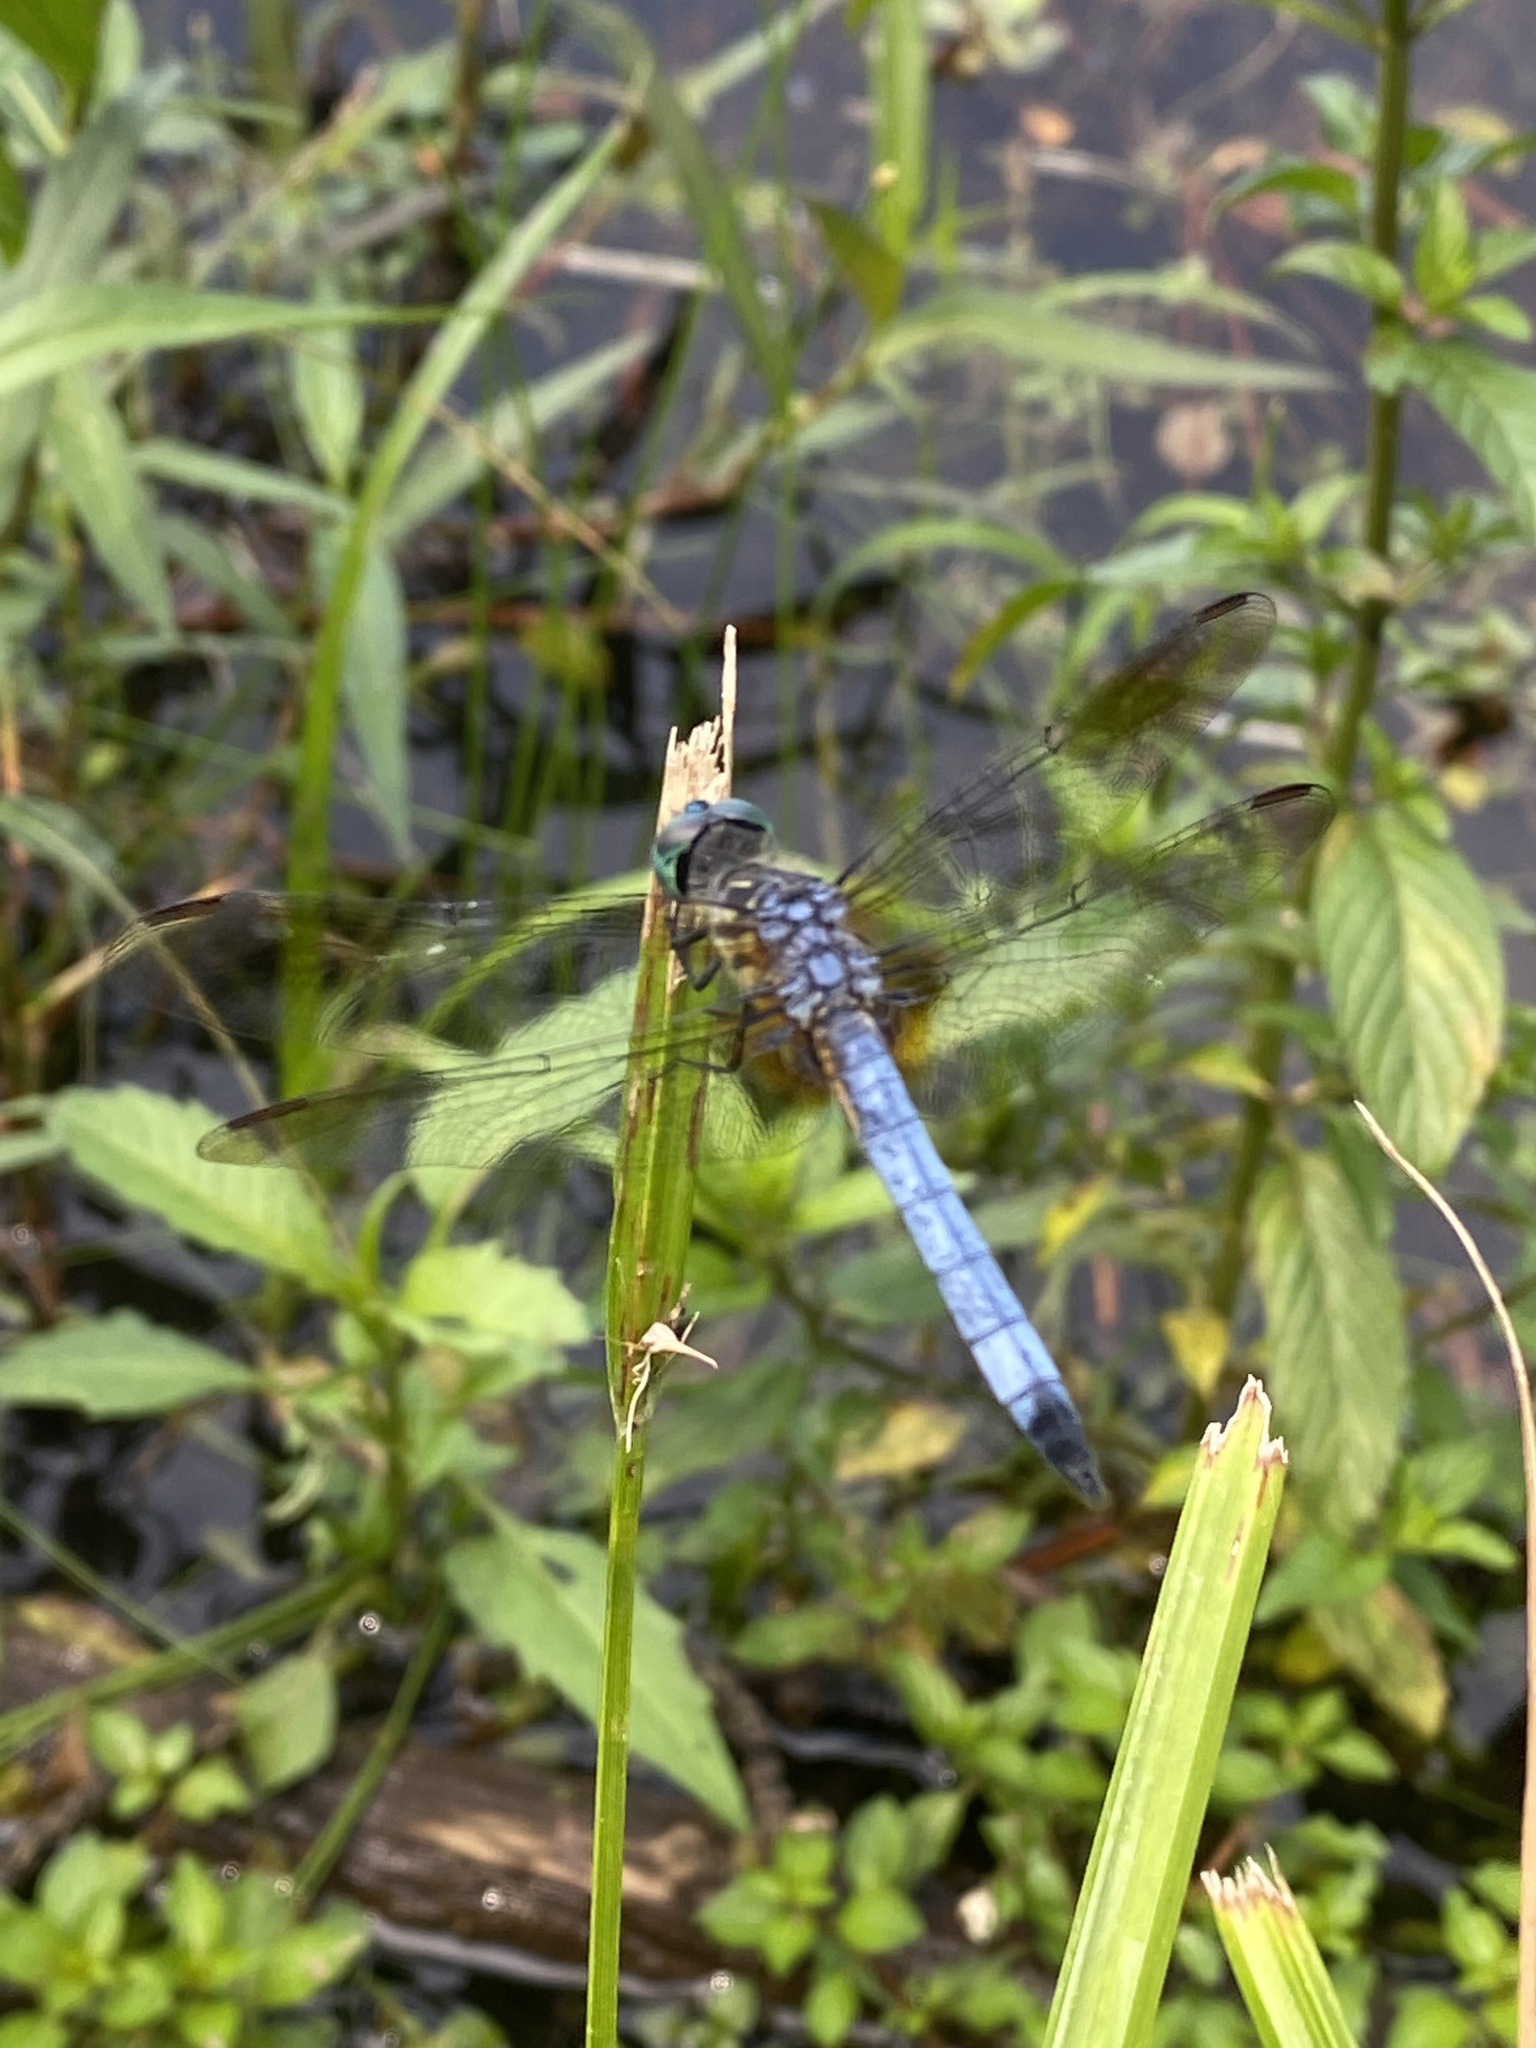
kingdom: Animalia
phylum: Arthropoda
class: Insecta
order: Odonata
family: Libellulidae
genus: Pachydiplax
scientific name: Pachydiplax longipennis
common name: Blue dasher
